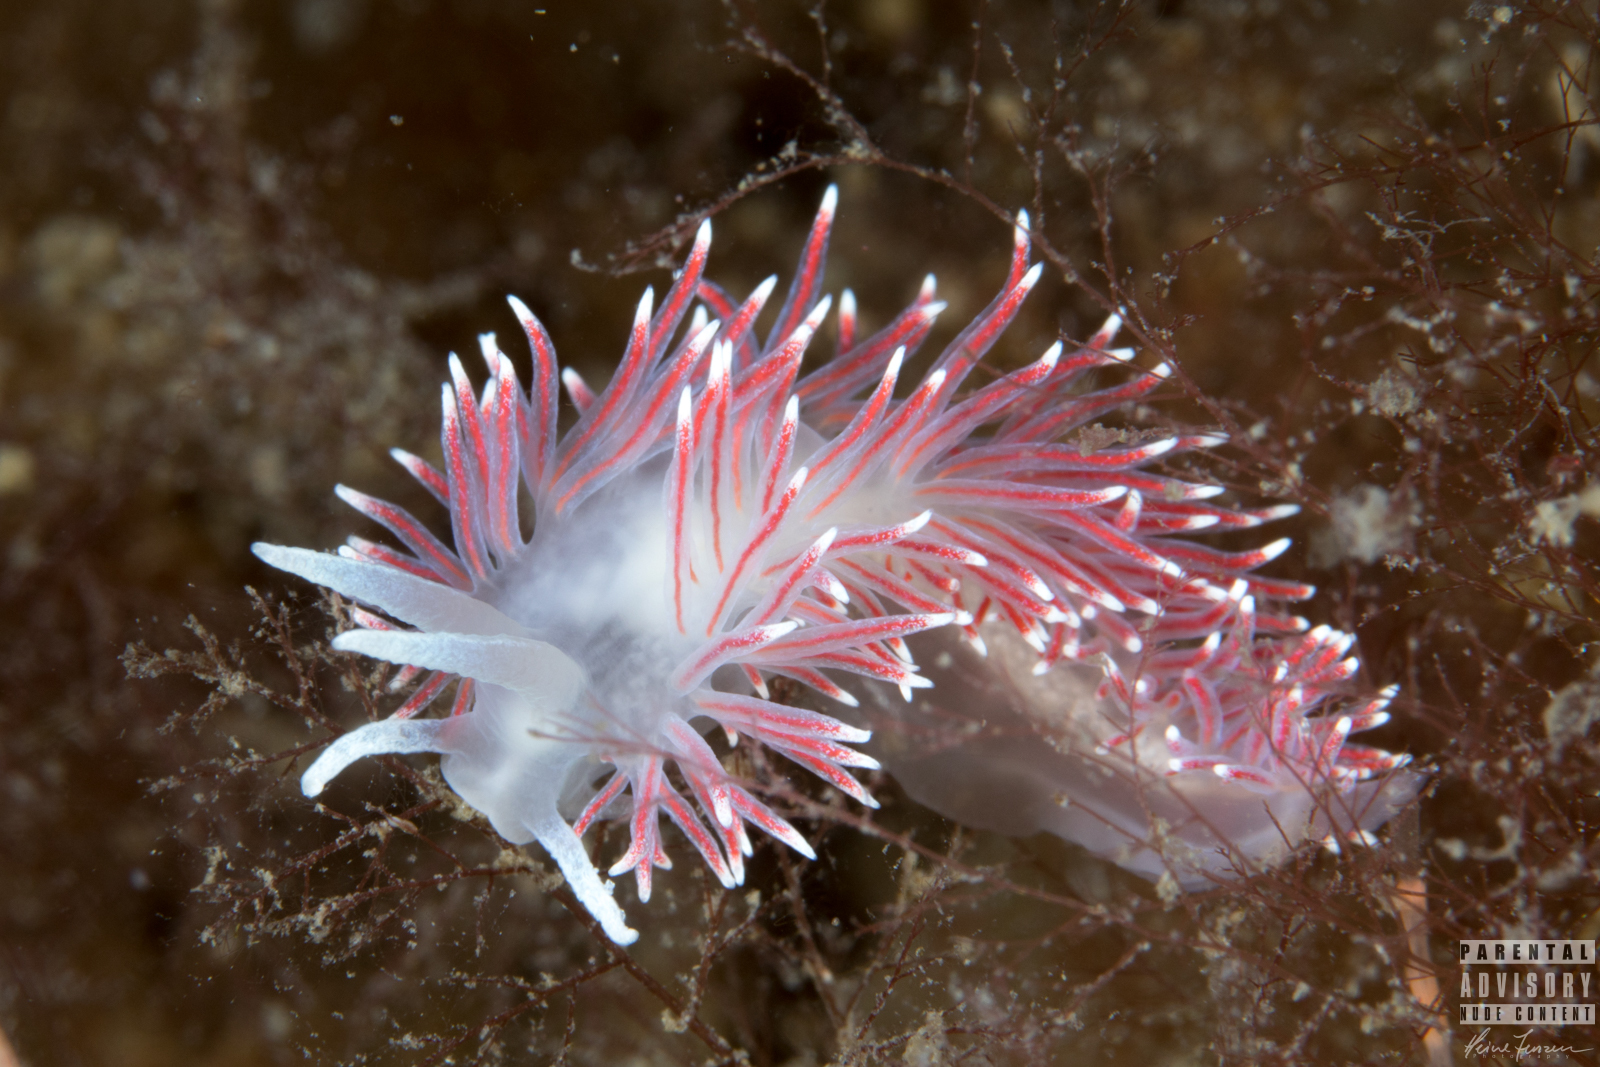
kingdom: Animalia
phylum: Mollusca
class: Gastropoda
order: Nudibranchia
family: Flabellinidae
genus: Carronella
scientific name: Carronella pellucida
